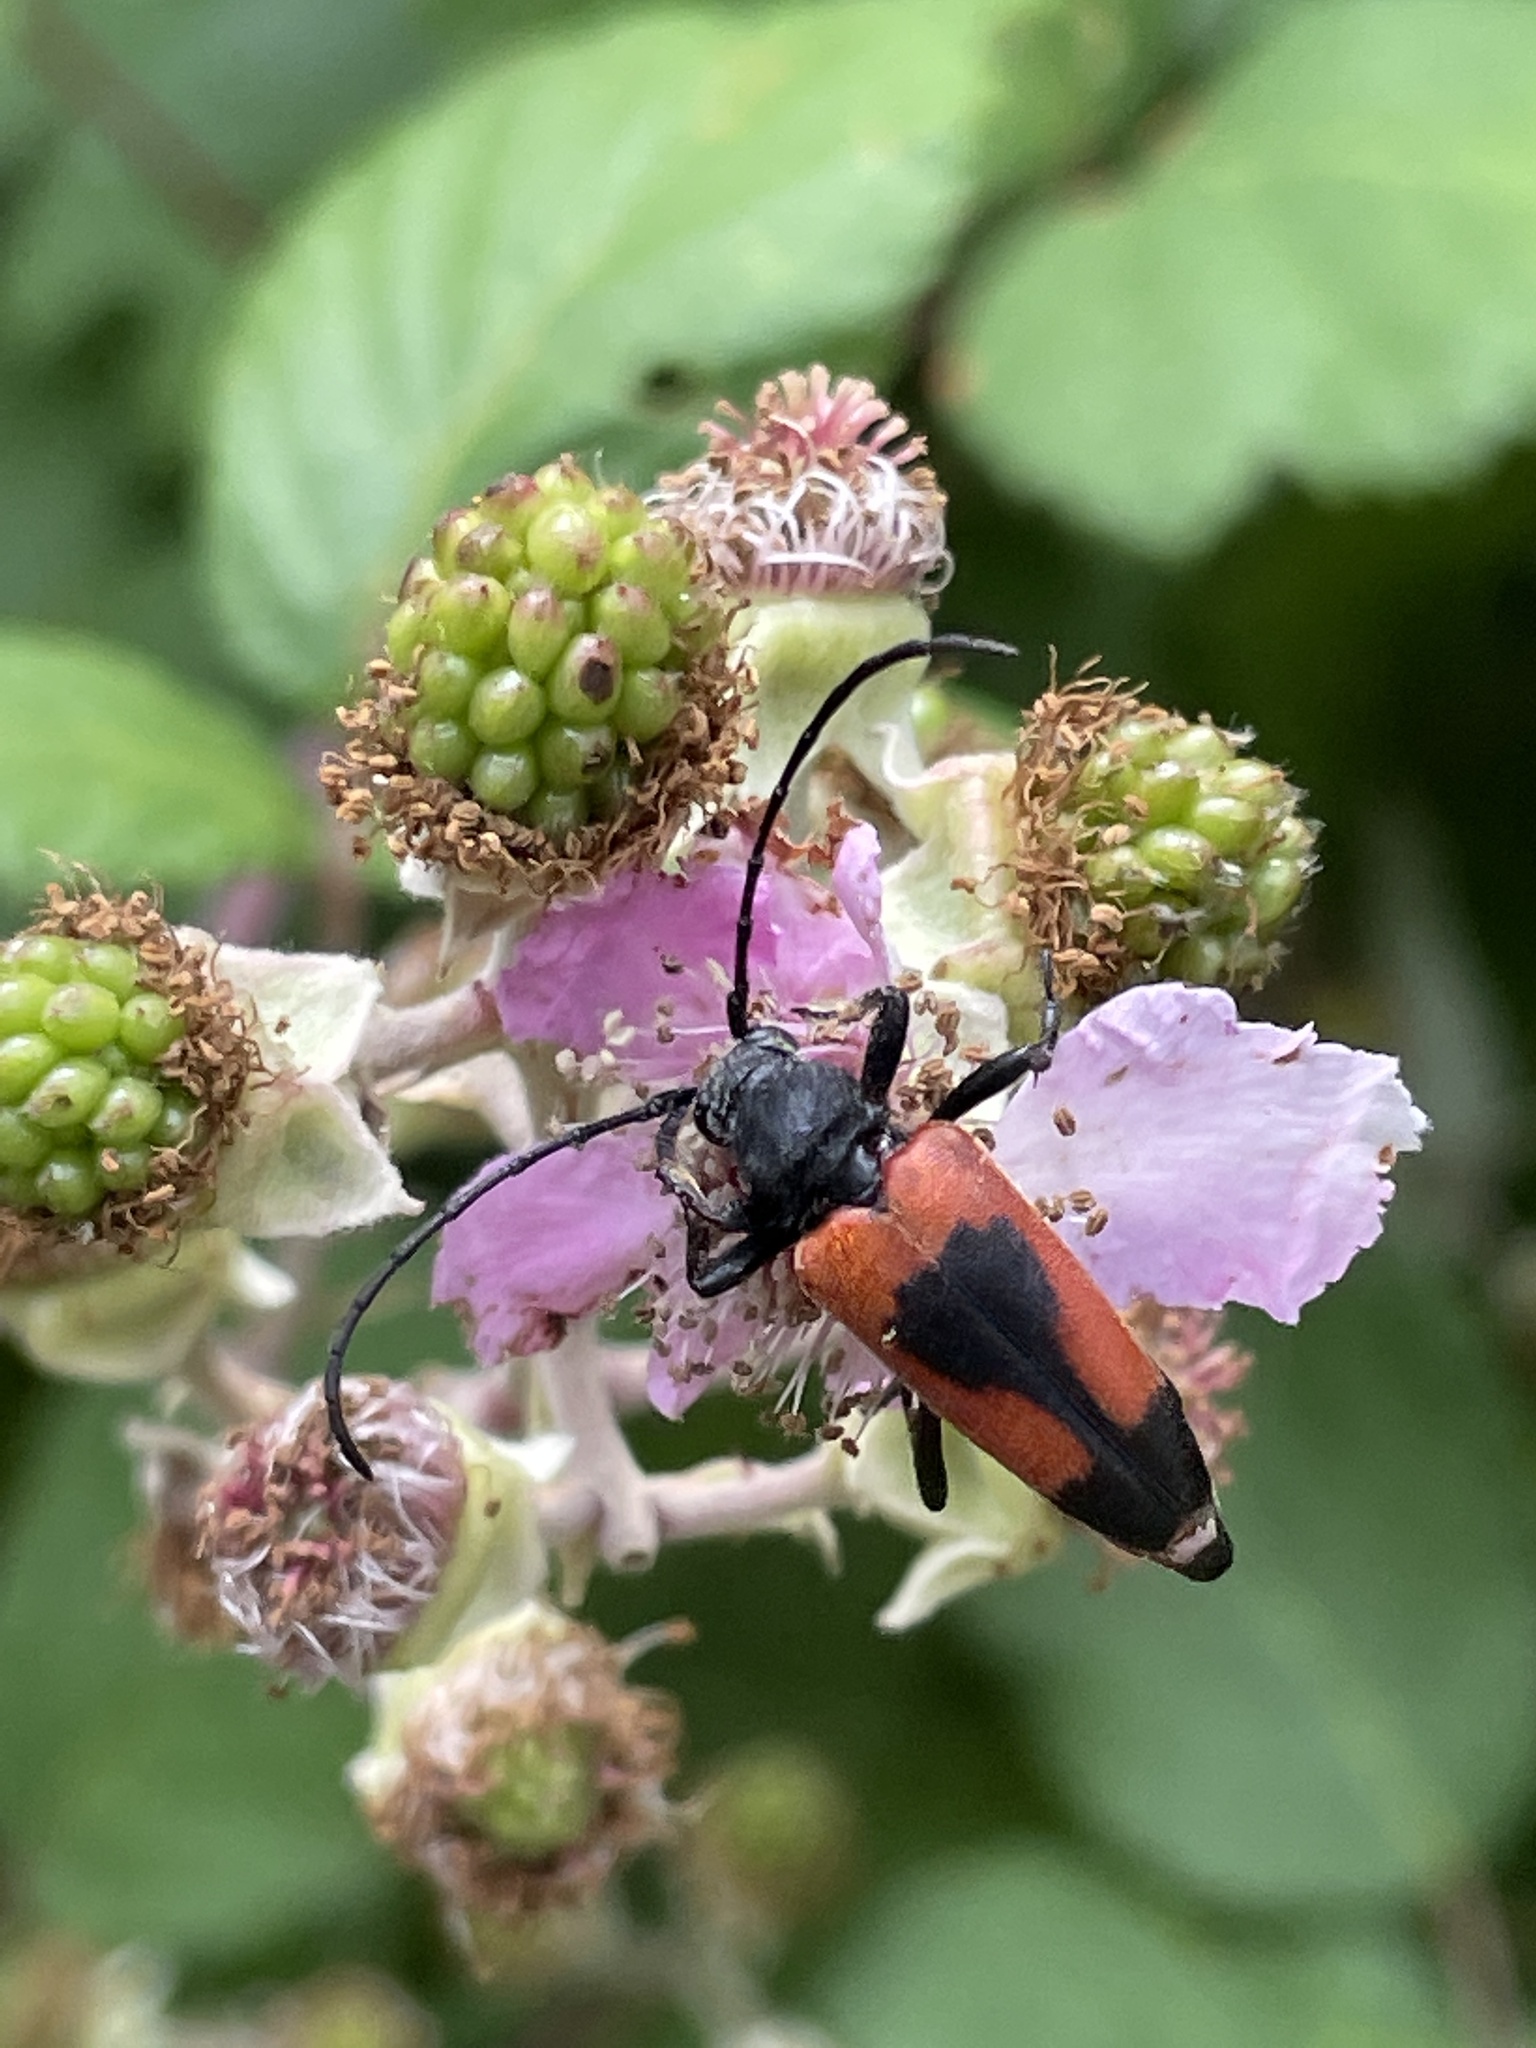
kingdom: Animalia
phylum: Arthropoda
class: Insecta
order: Coleoptera
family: Cerambycidae
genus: Stictoleptura
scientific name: Stictoleptura cordigera
